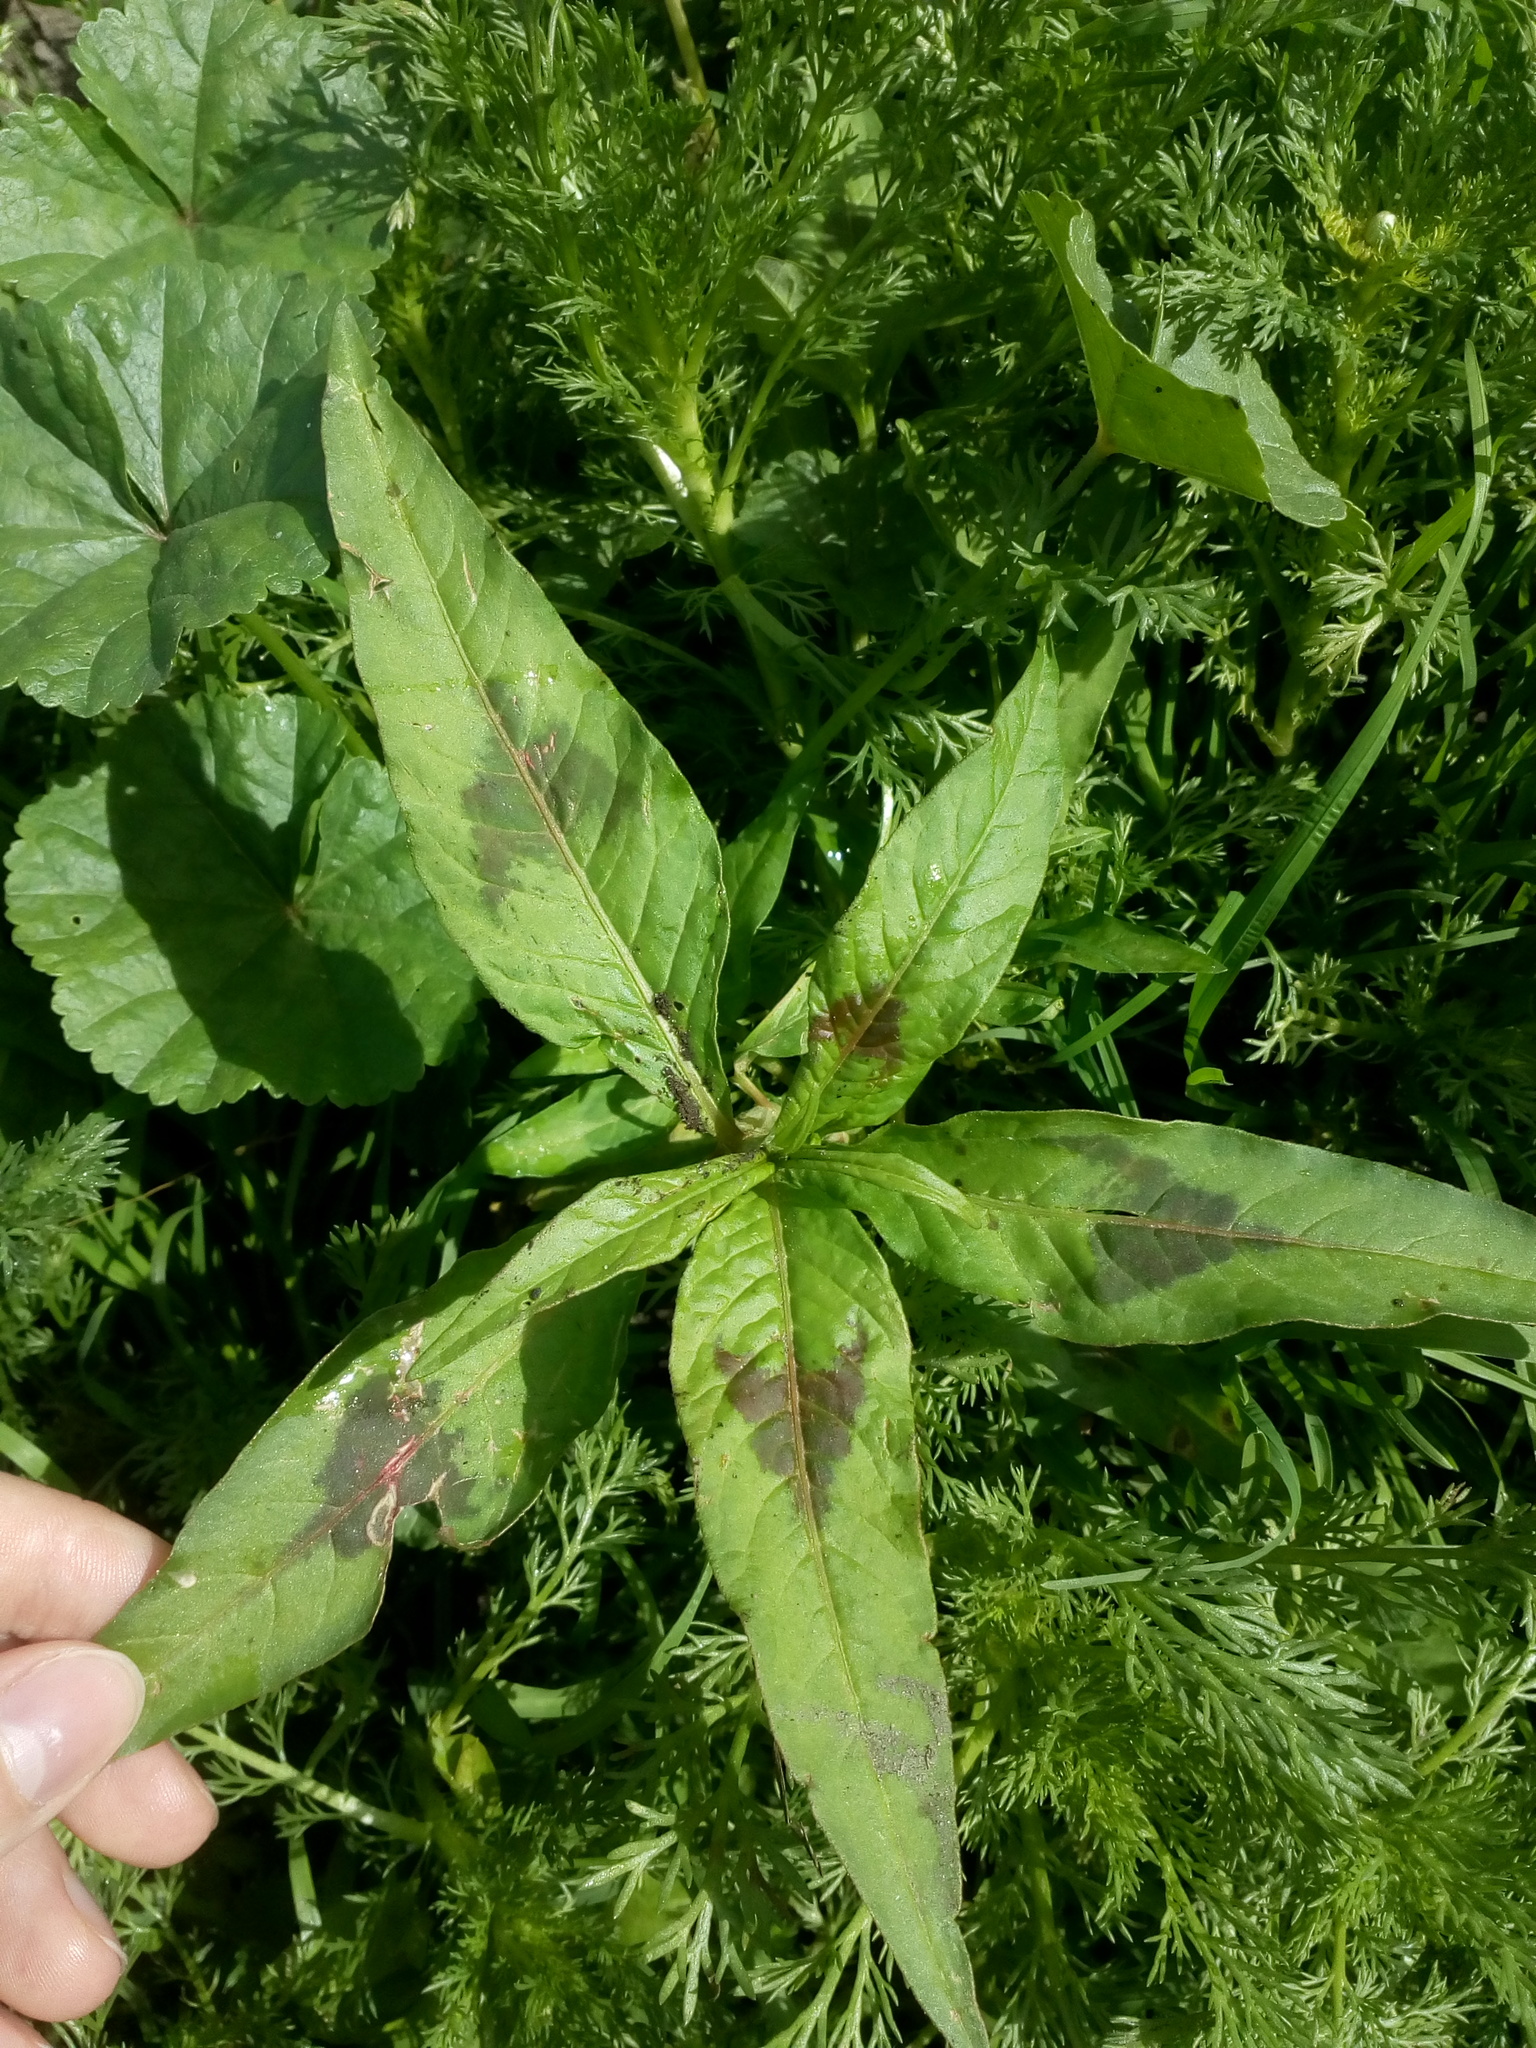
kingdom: Plantae
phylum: Tracheophyta
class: Magnoliopsida
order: Caryophyllales
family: Polygonaceae
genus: Persicaria
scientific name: Persicaria maculosa
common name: Redshank
